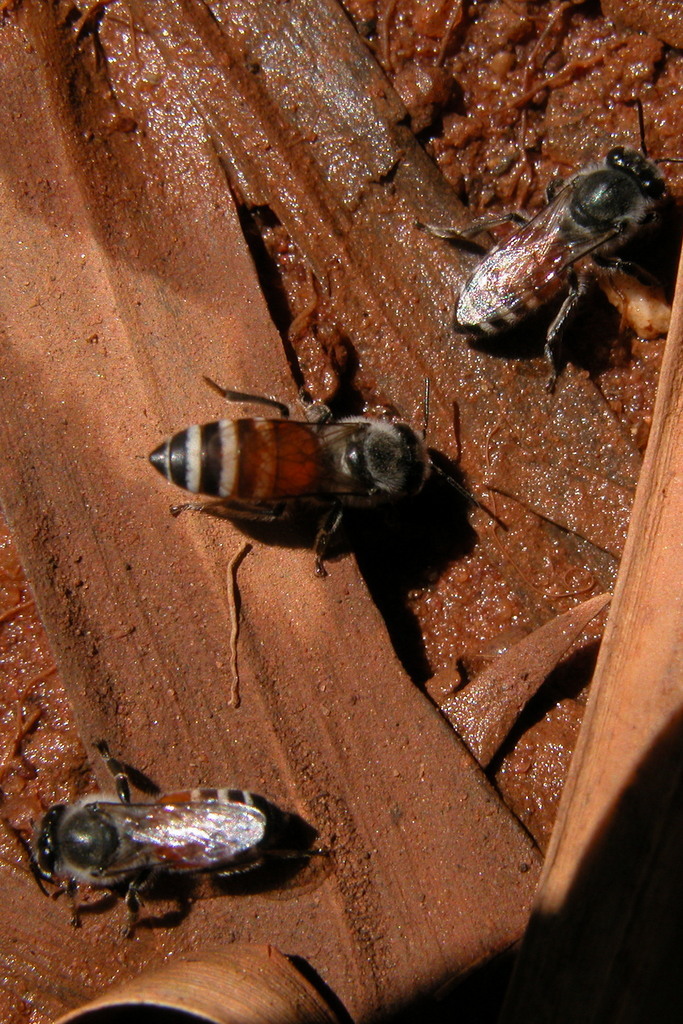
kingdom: Animalia
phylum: Arthropoda
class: Insecta
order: Hymenoptera
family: Apidae
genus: Apis
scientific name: Apis florea
